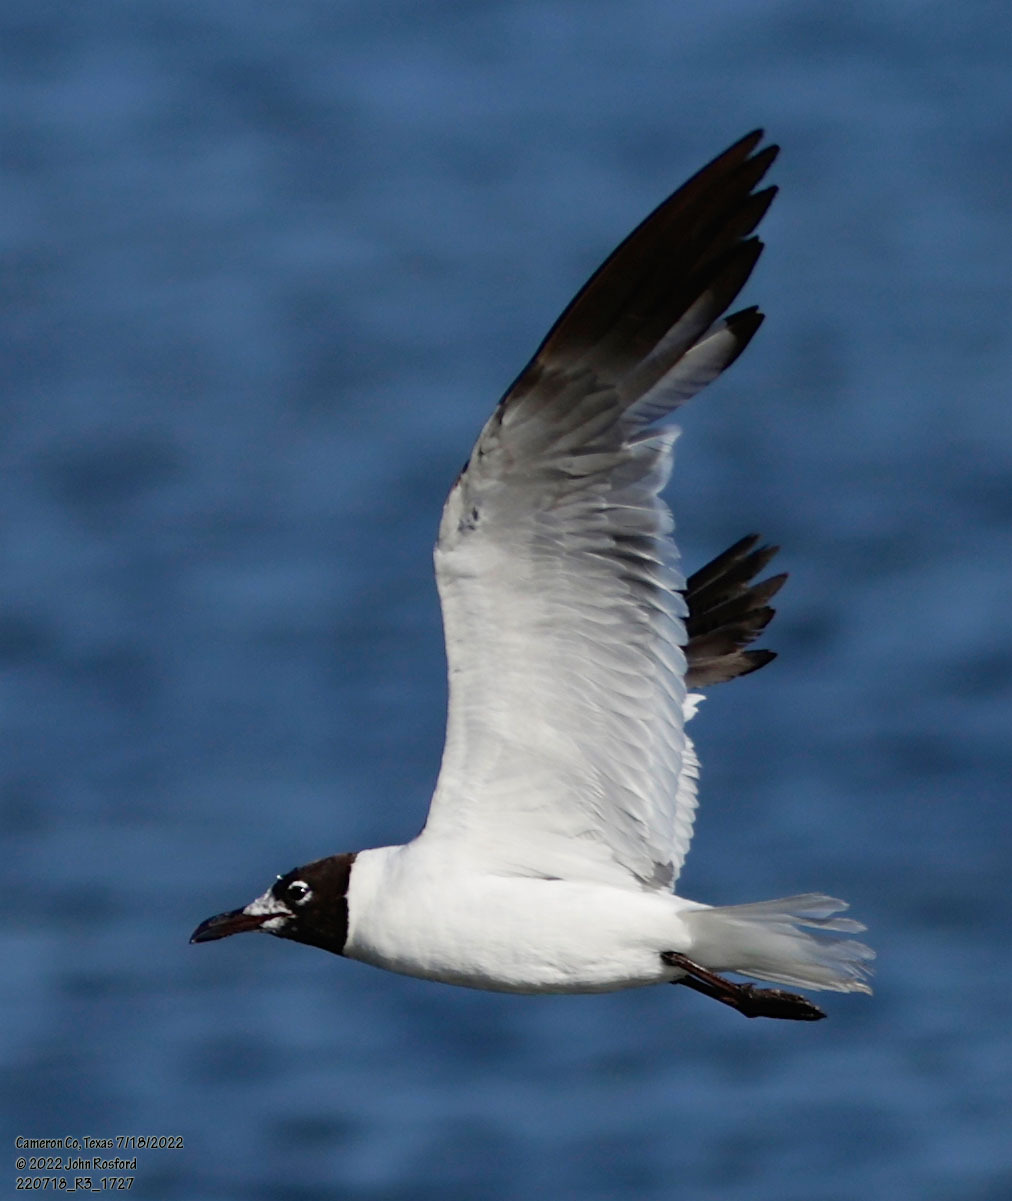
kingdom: Animalia
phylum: Chordata
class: Aves
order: Charadriiformes
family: Laridae
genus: Leucophaeus
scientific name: Leucophaeus atricilla
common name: Laughing gull
